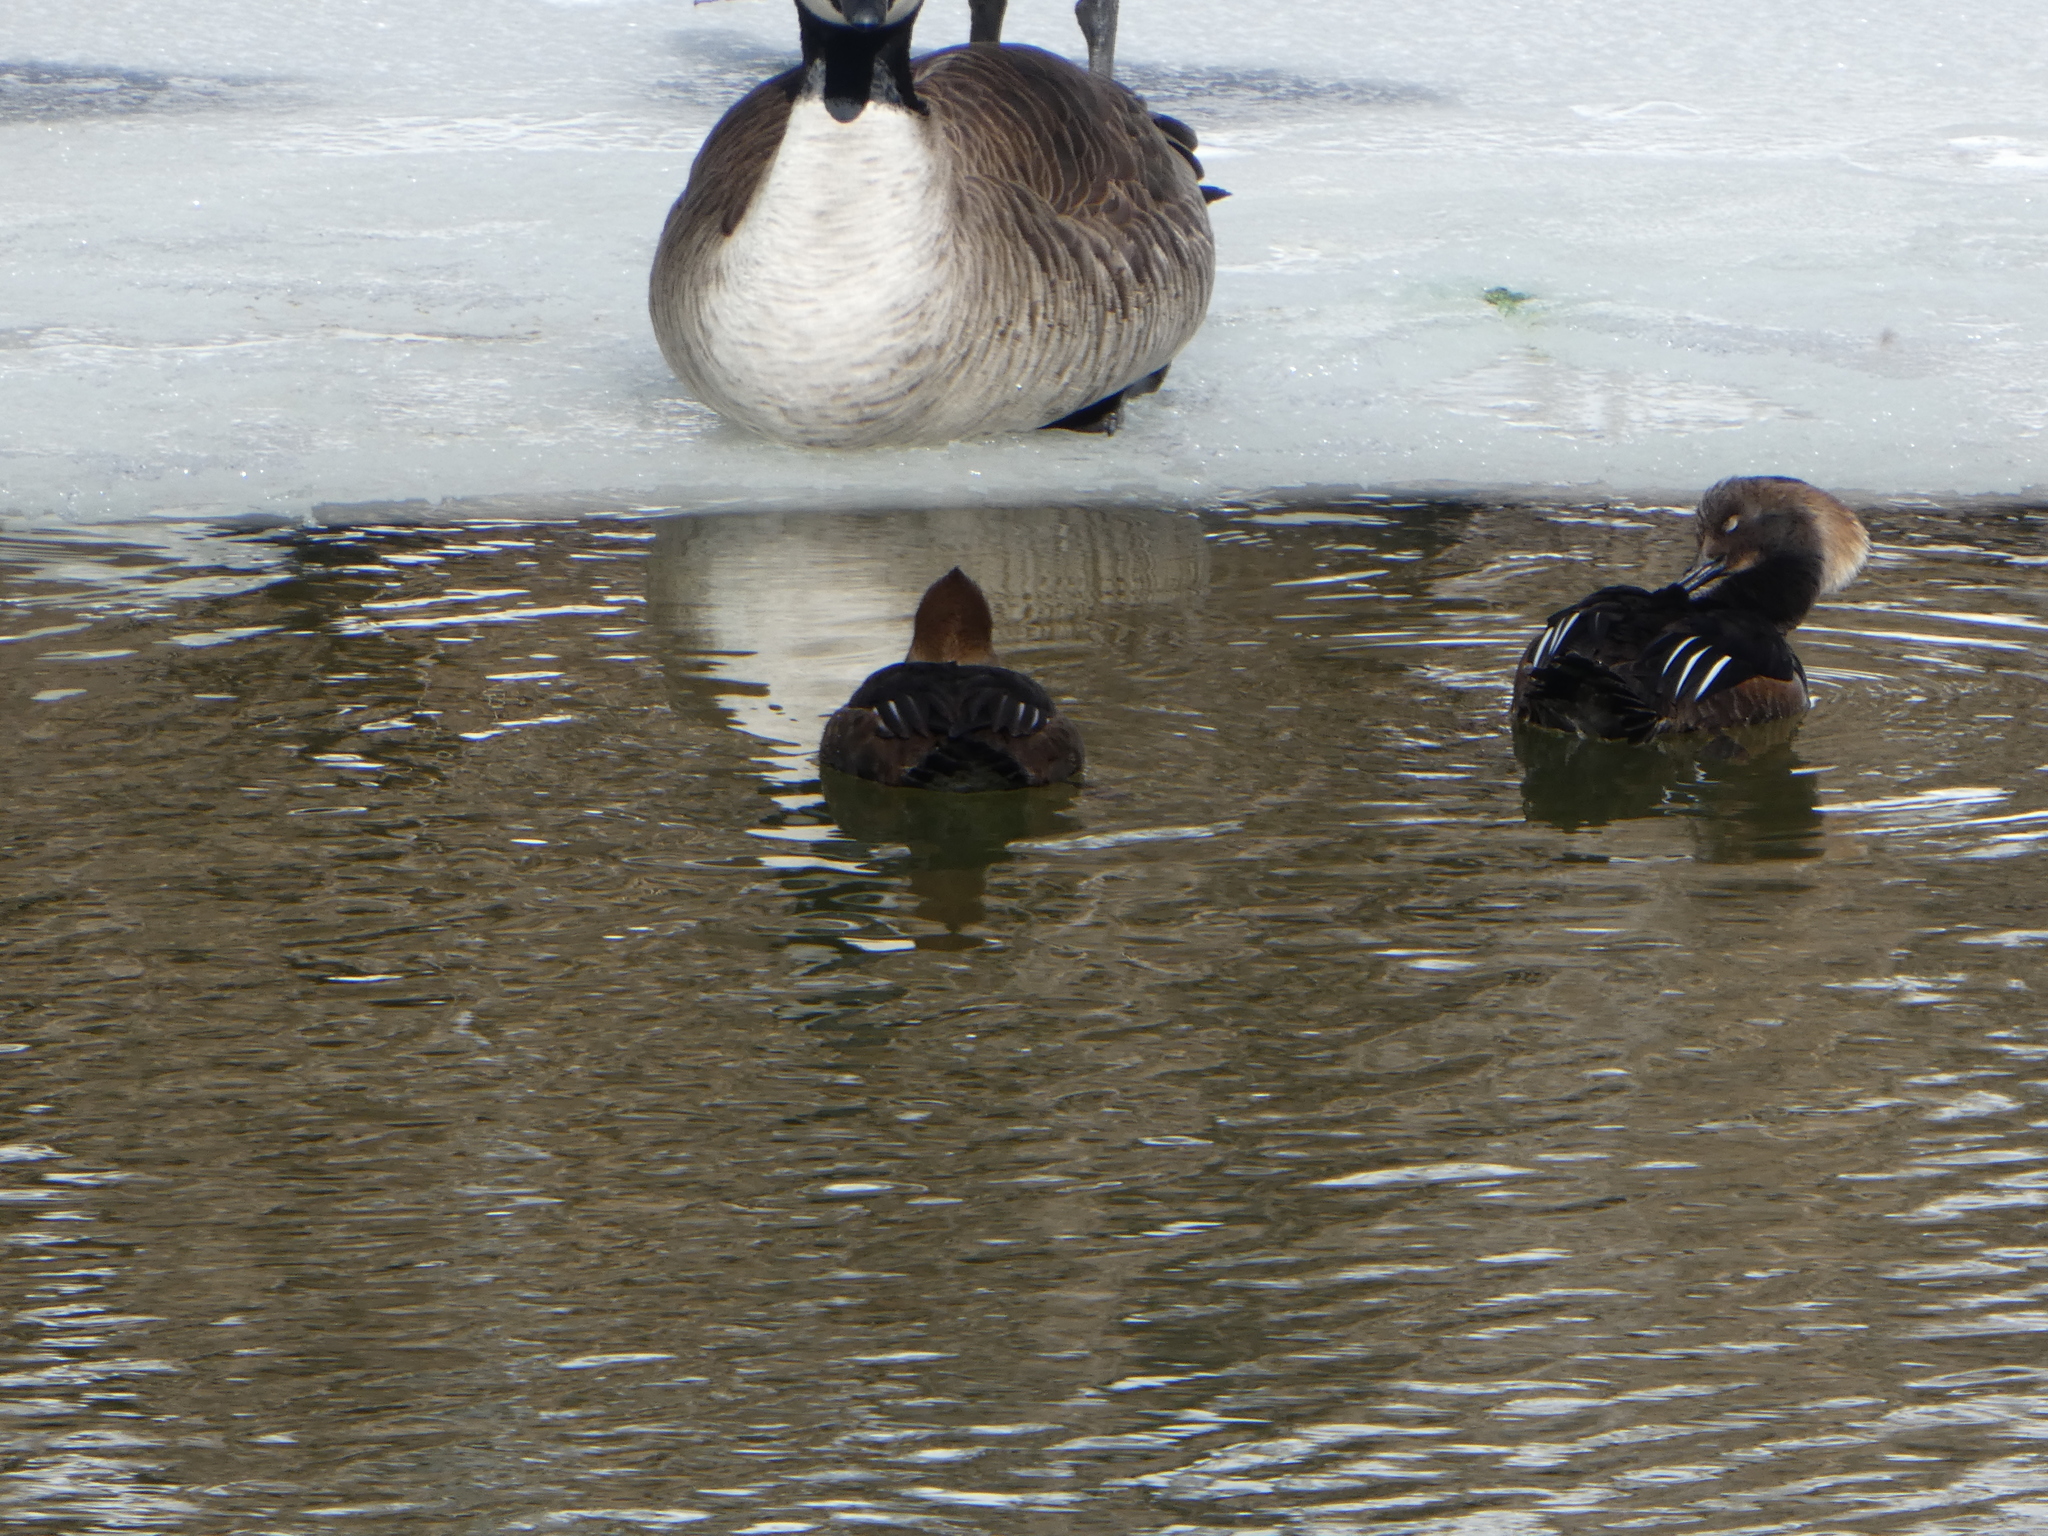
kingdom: Animalia
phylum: Chordata
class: Aves
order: Anseriformes
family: Anatidae
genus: Lophodytes
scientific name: Lophodytes cucullatus
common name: Hooded merganser
